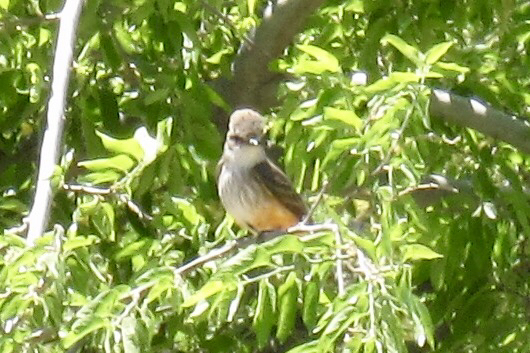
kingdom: Animalia
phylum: Chordata
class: Aves
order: Passeriformes
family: Tyrannidae
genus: Pyrocephalus
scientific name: Pyrocephalus rubinus
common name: Vermilion flycatcher
